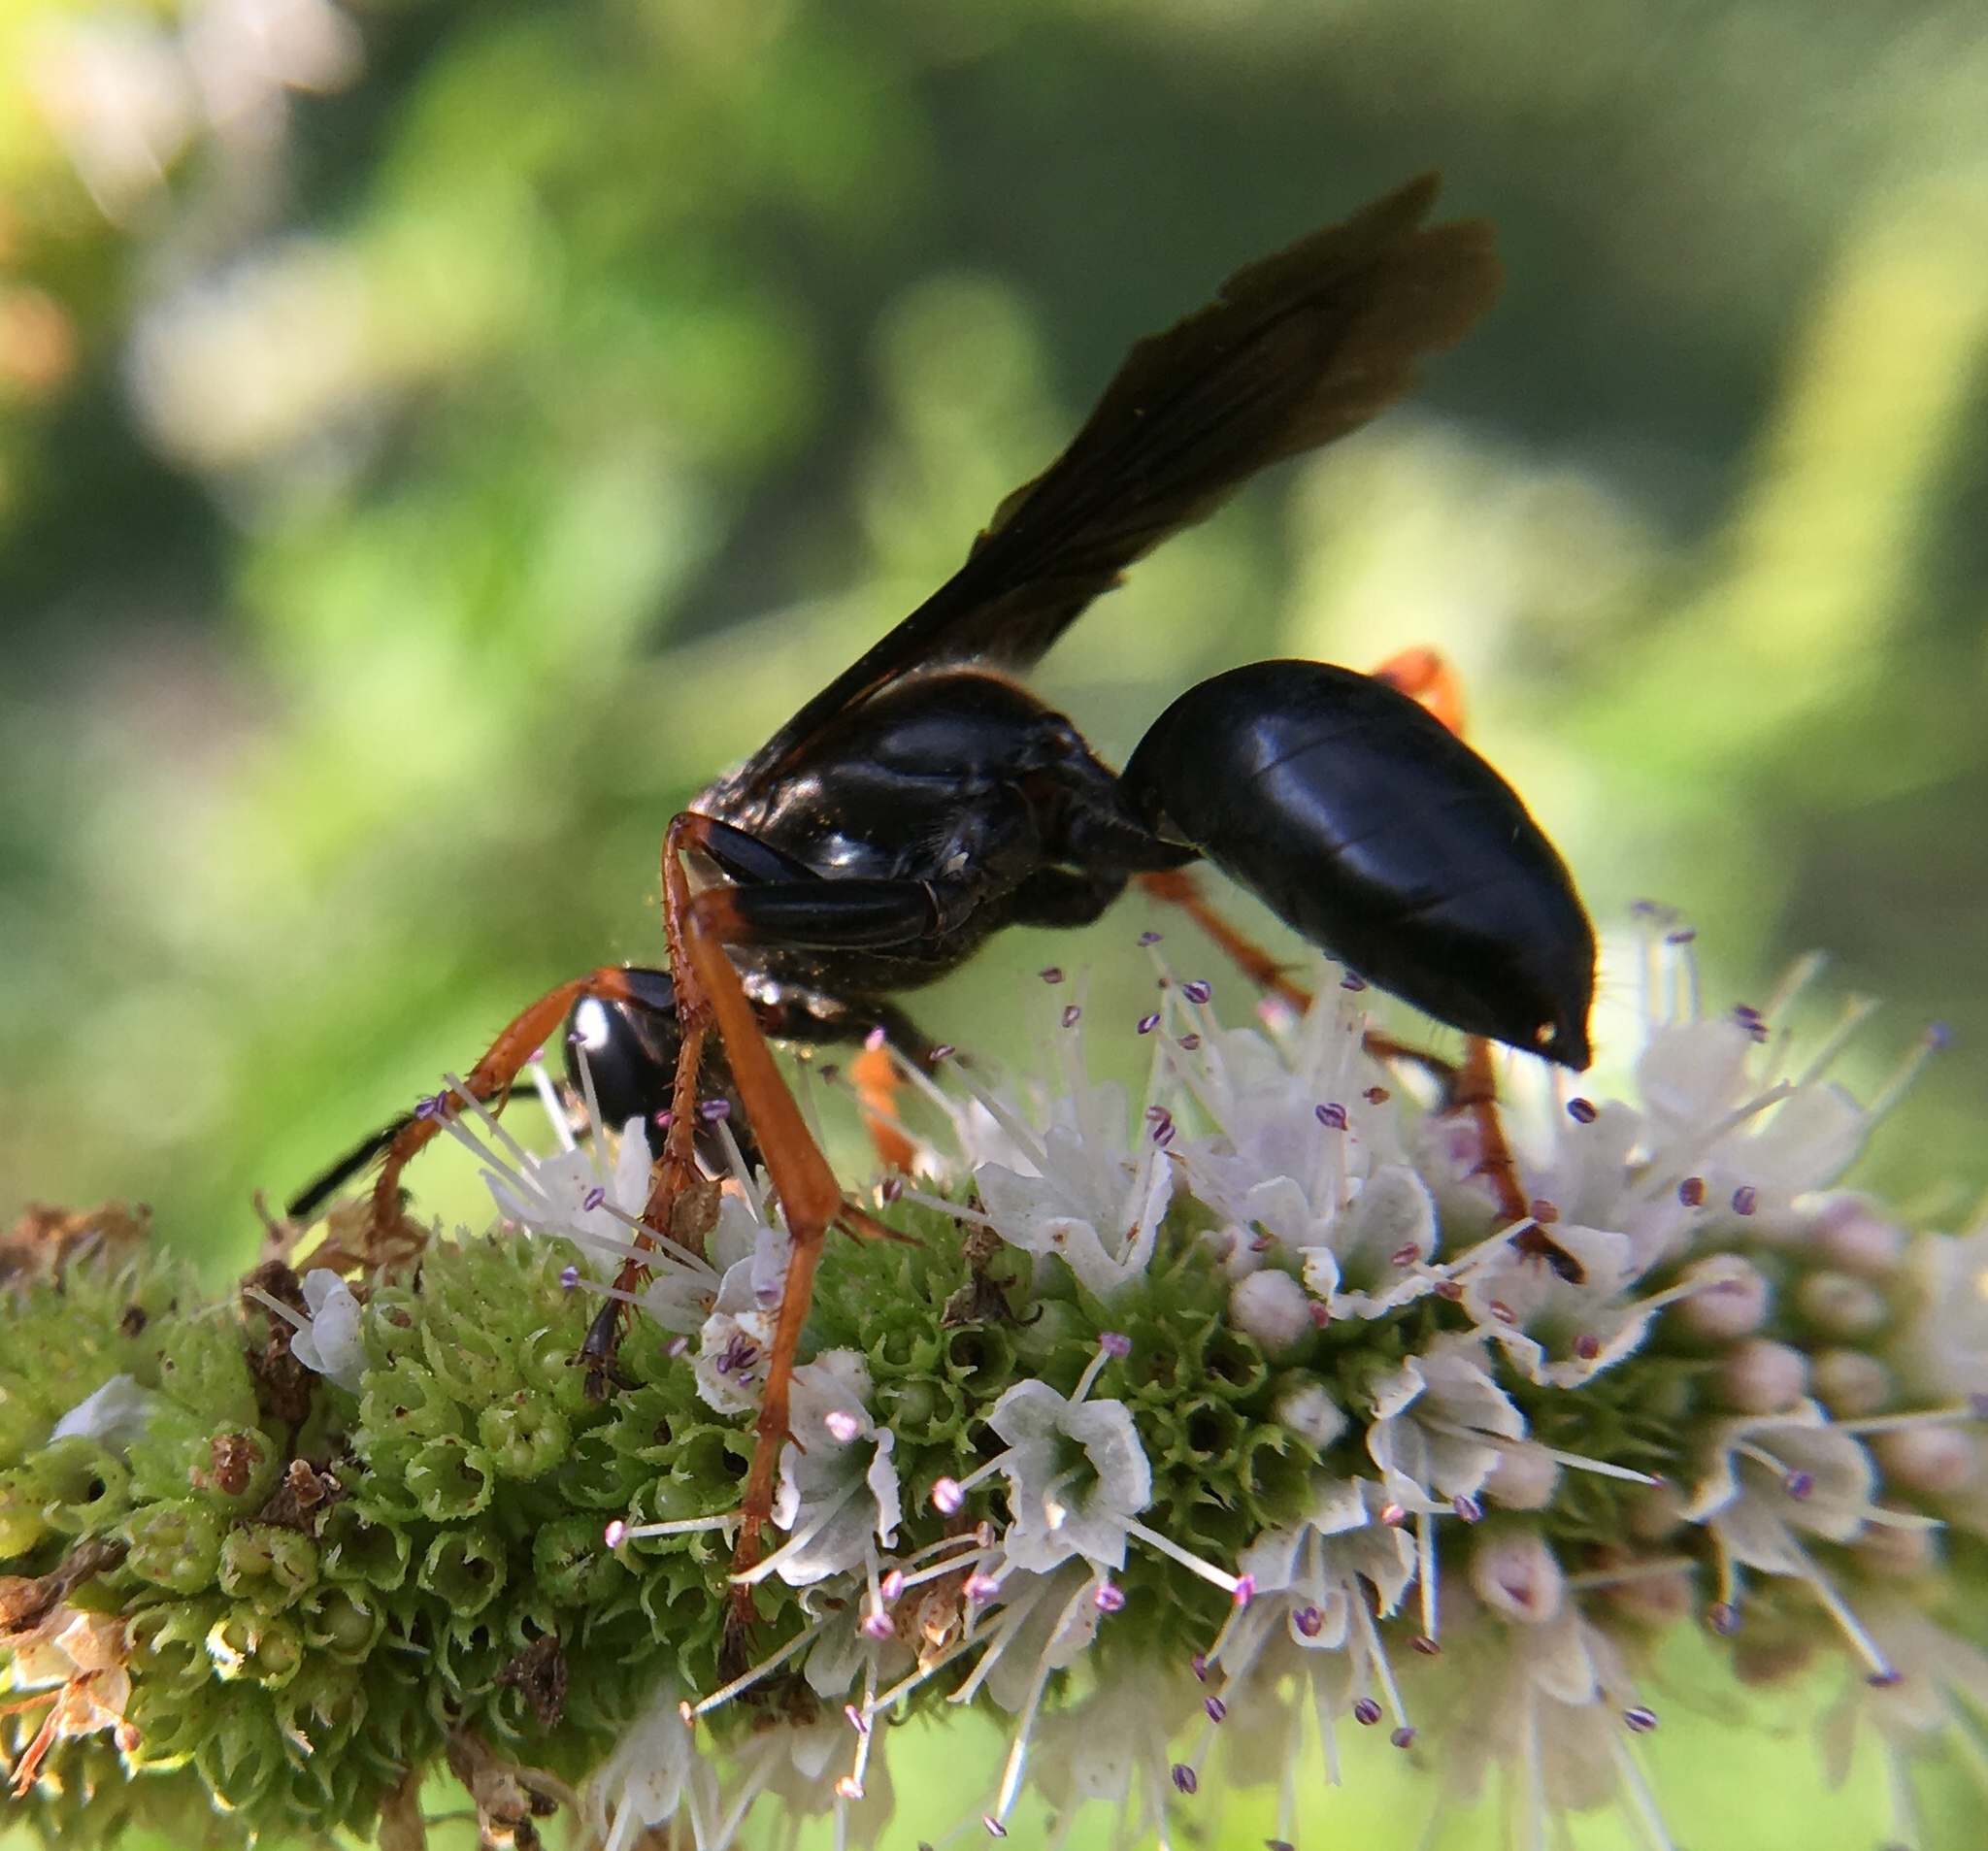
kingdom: Animalia
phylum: Arthropoda
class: Insecta
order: Hymenoptera
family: Sphecidae
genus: Sphex
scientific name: Sphex nudus
